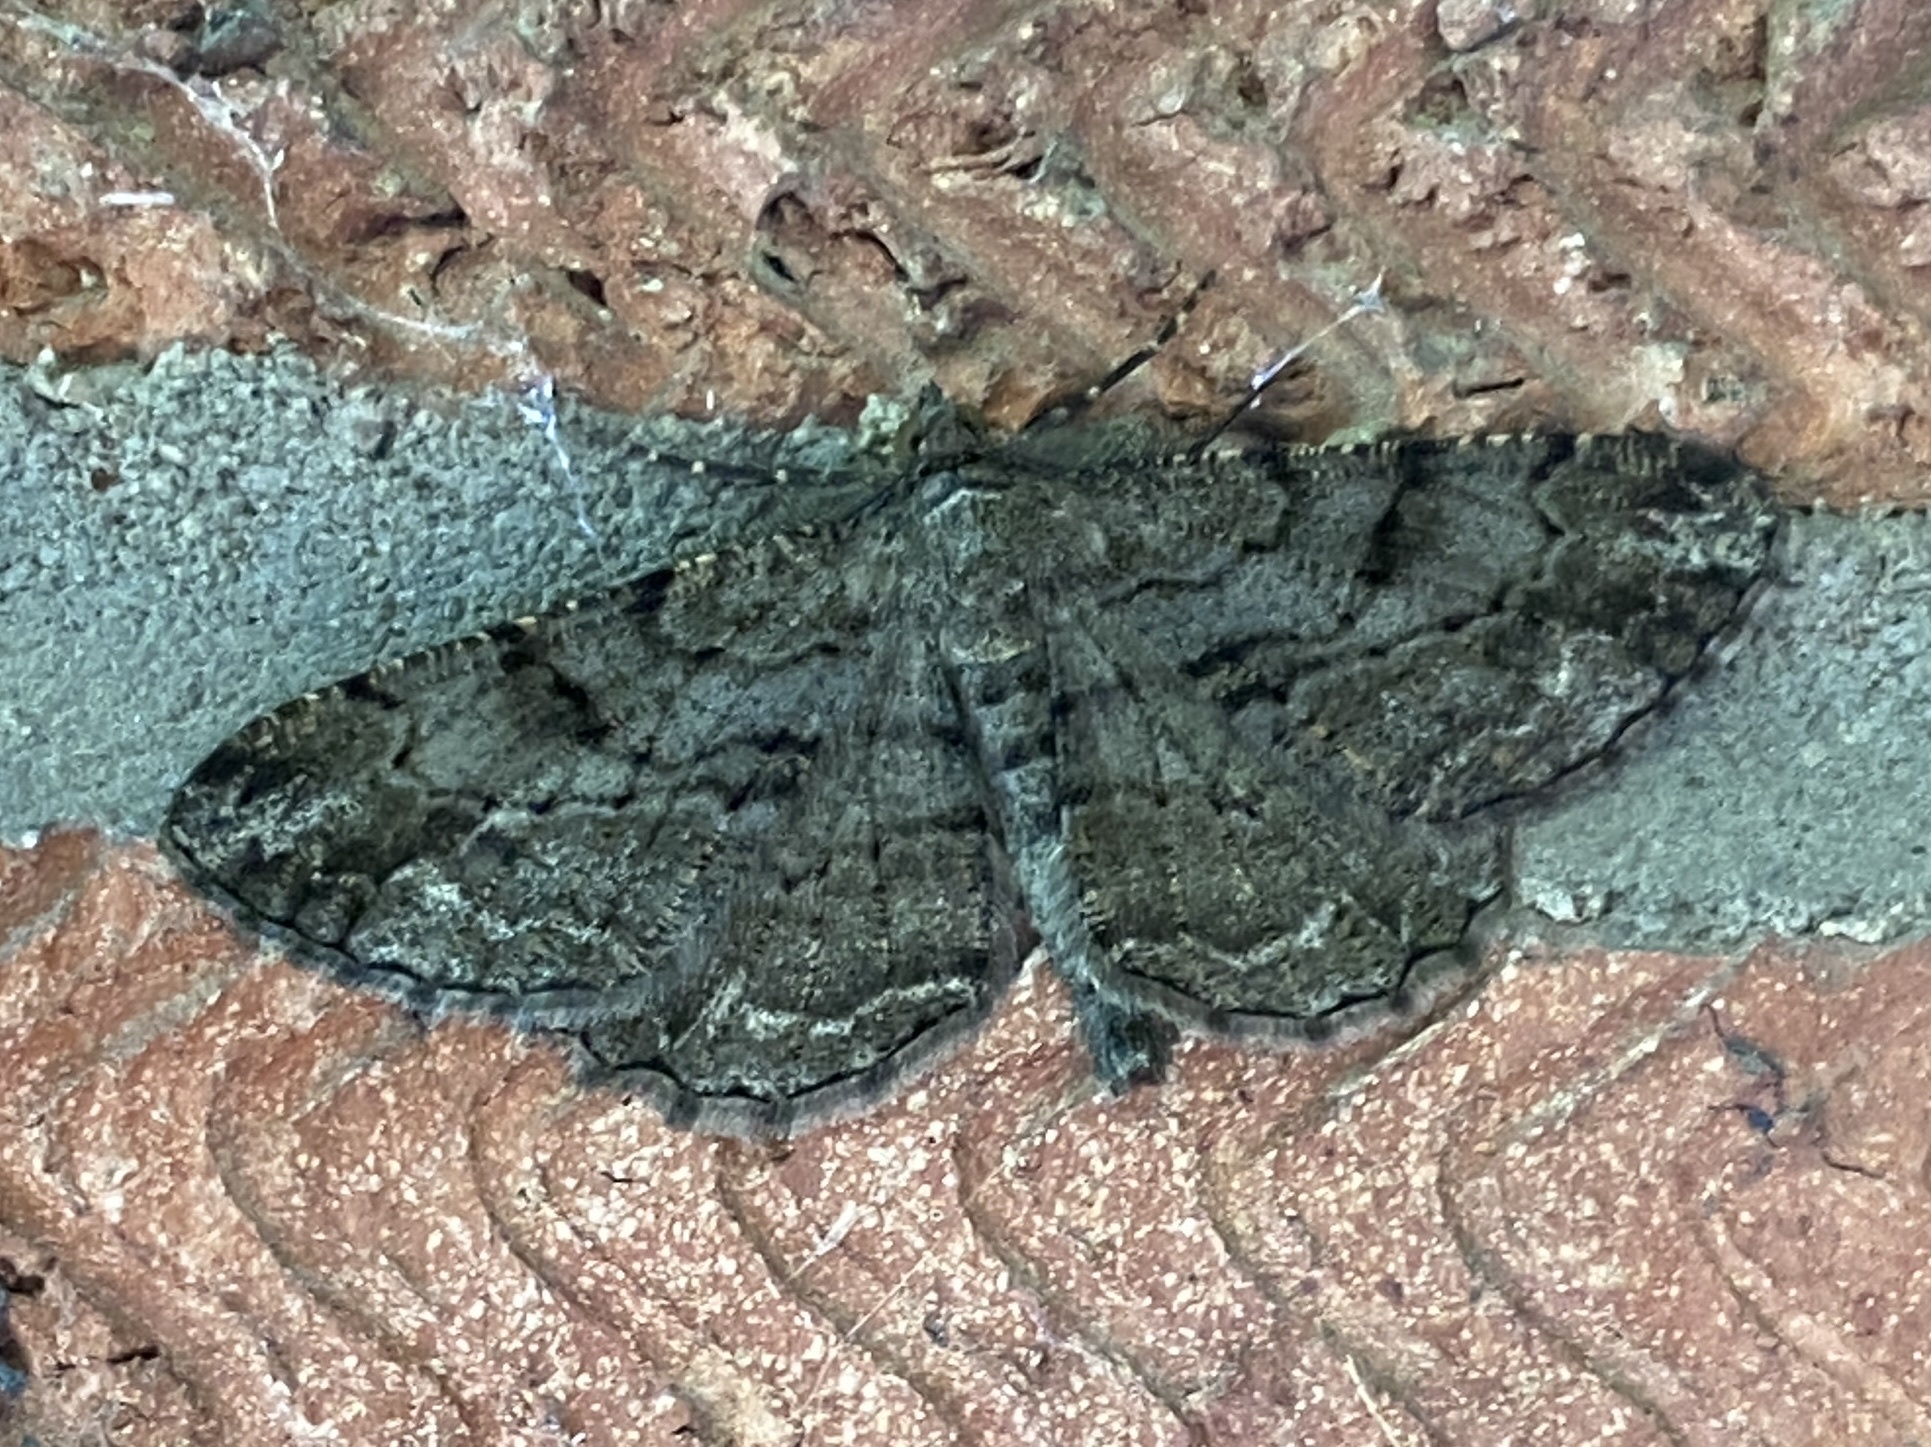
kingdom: Animalia
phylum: Arthropoda
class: Insecta
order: Lepidoptera
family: Geometridae
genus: Peribatodes
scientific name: Peribatodes rhomboidaria
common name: Willow beauty
